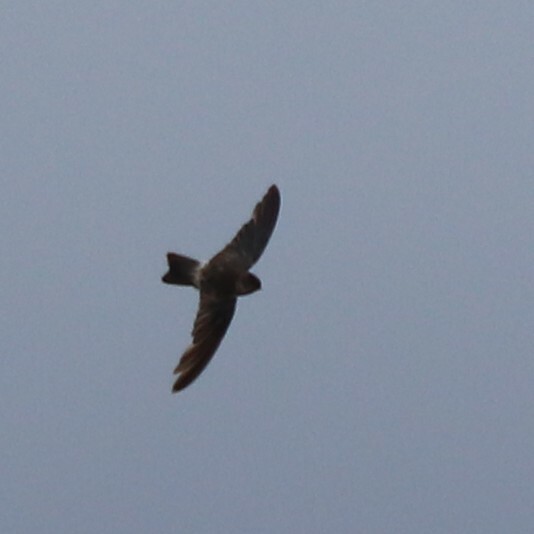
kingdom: Animalia
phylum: Chordata
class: Aves
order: Apodiformes
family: Apodidae
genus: Aerodramus
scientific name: Aerodramus francicus
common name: Mascarene swiftlet
